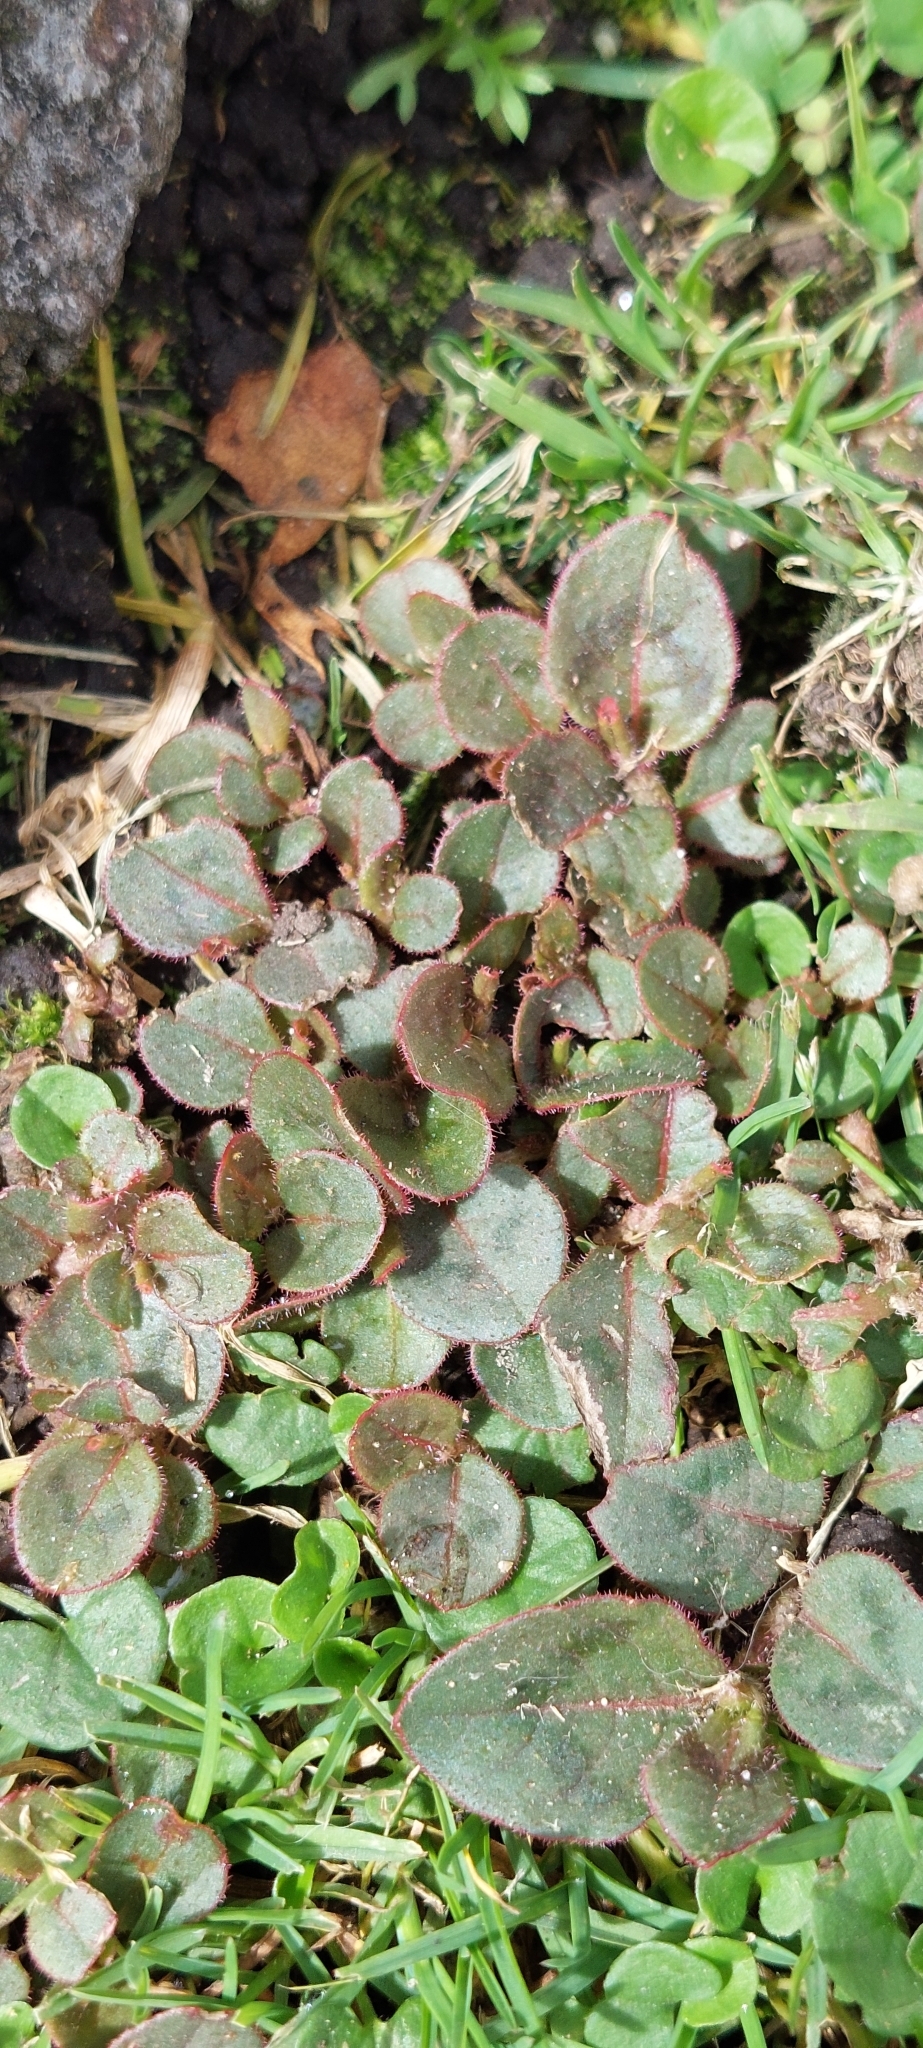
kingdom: Plantae
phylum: Tracheophyta
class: Magnoliopsida
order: Caryophyllales
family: Polygonaceae
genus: Persicaria
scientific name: Persicaria capitata
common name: Pinkhead smartweed
